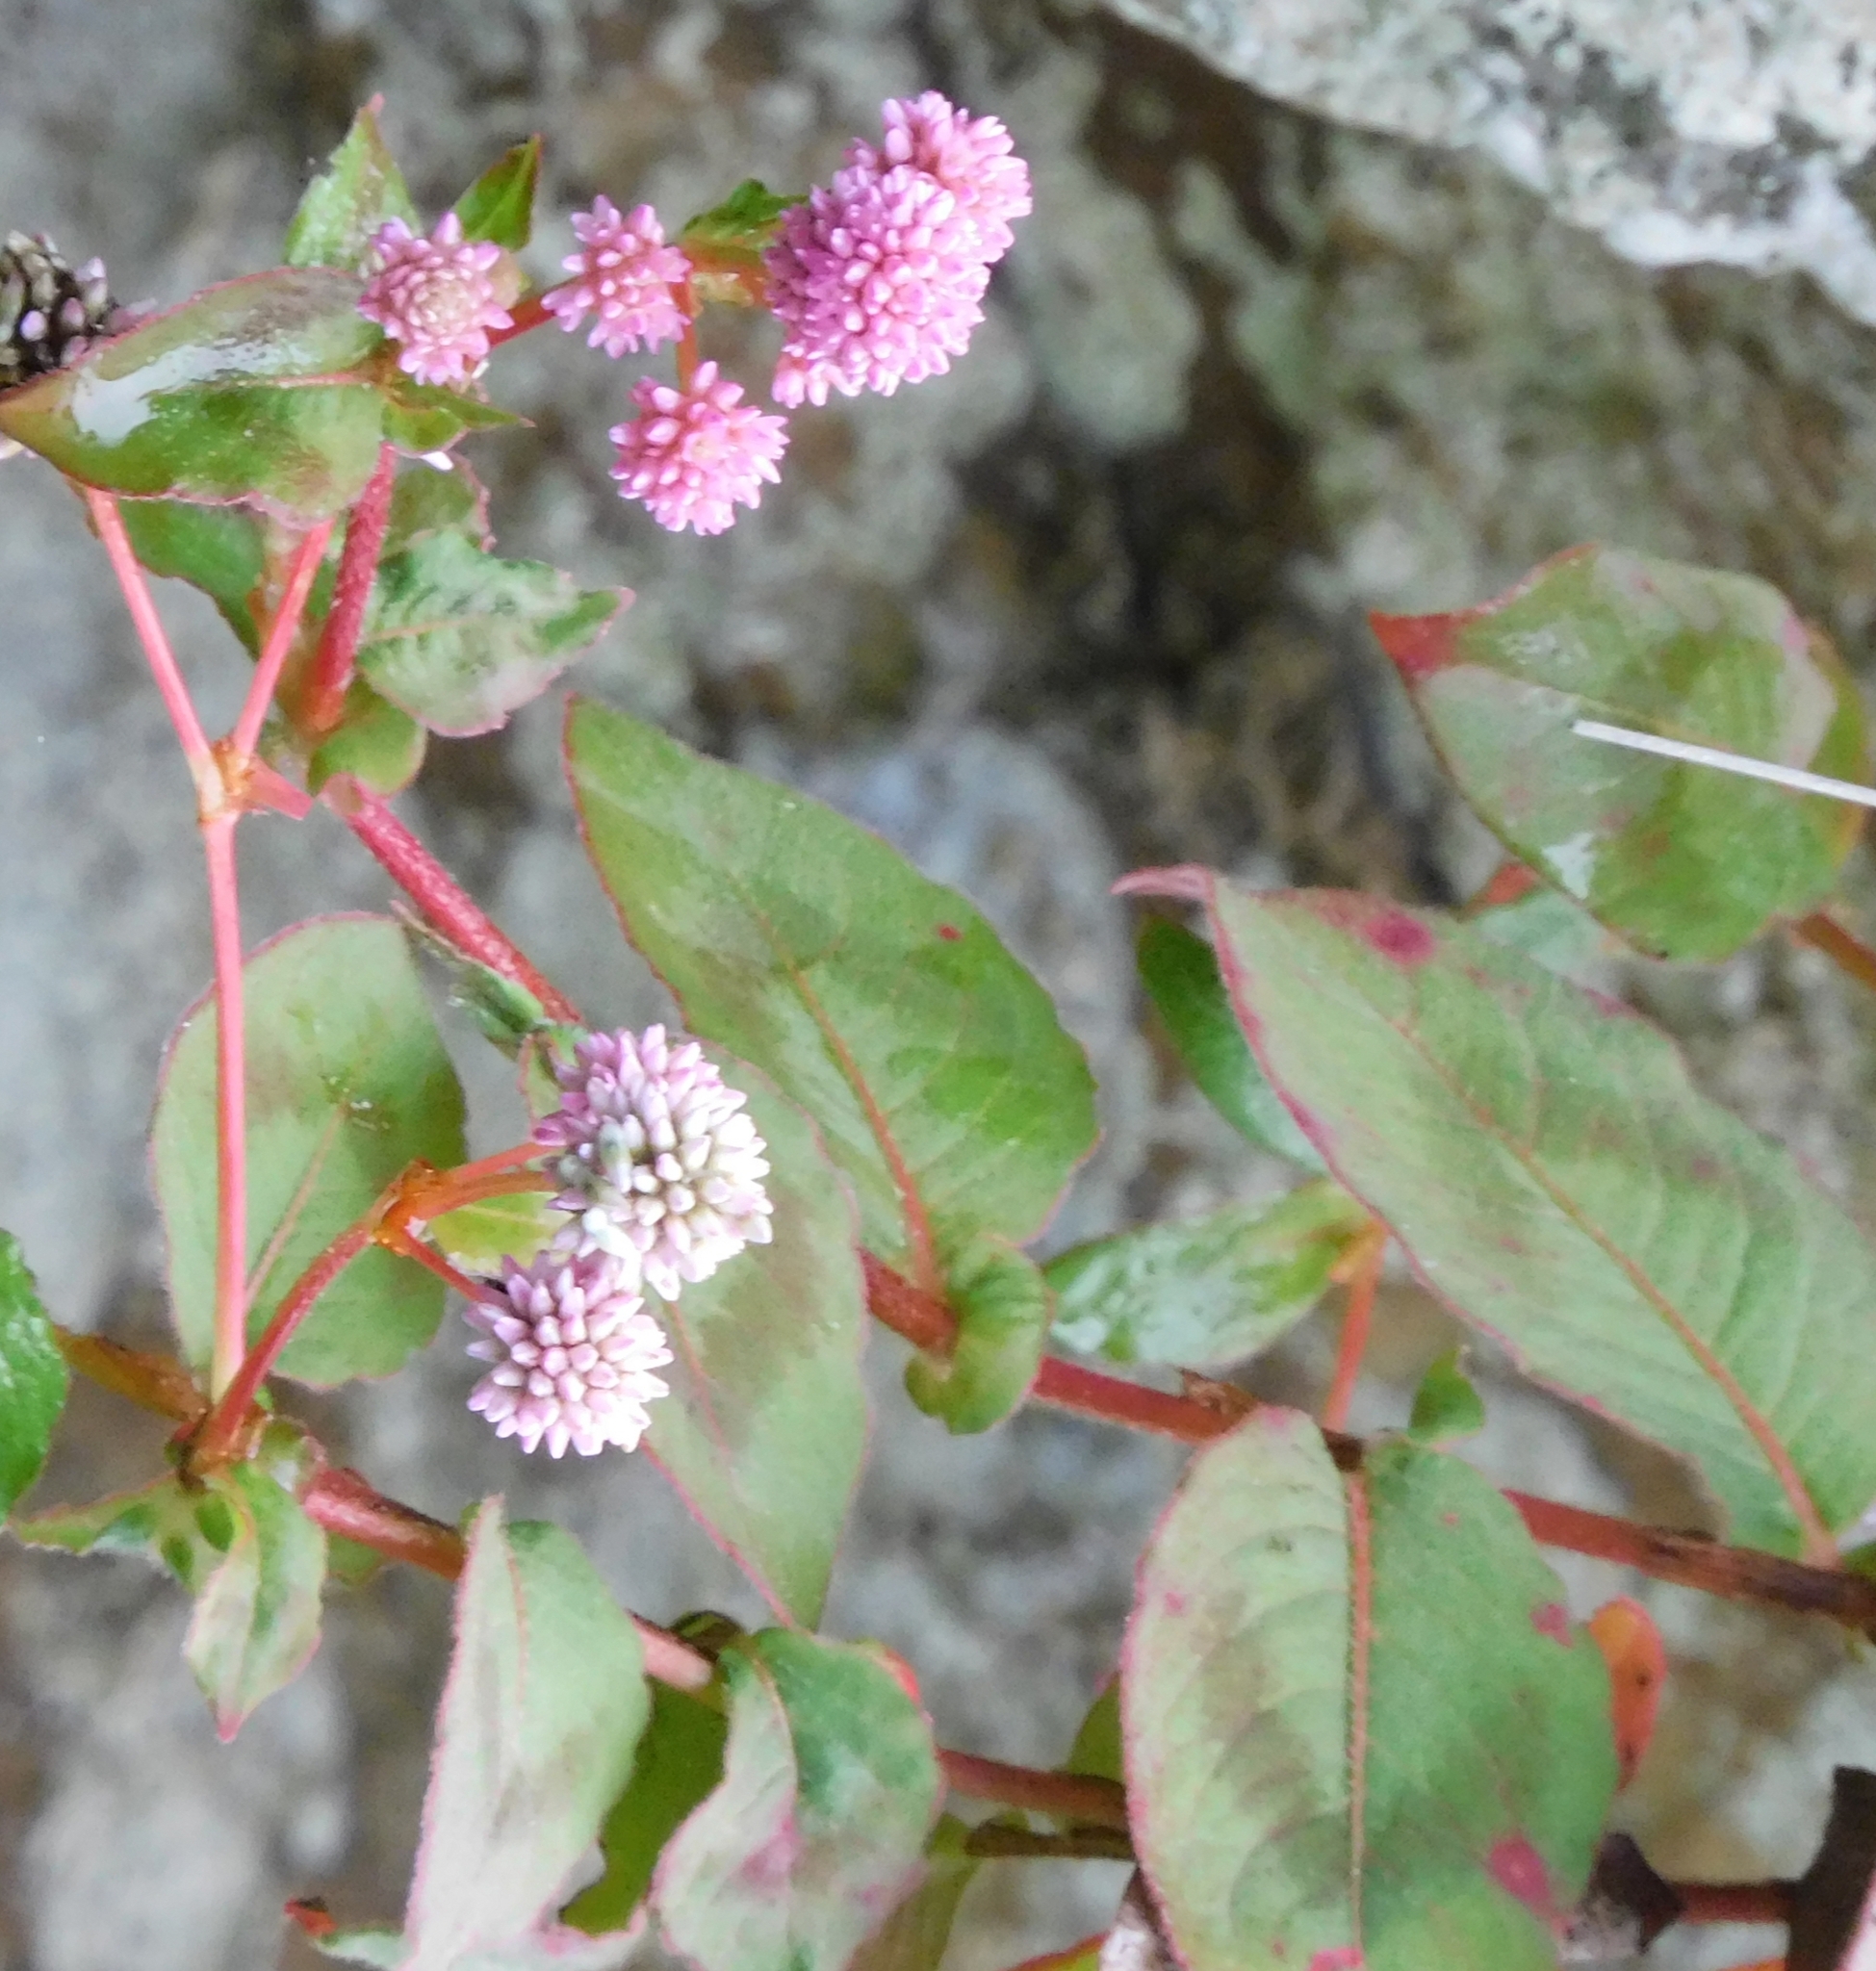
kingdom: Plantae
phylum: Tracheophyta
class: Magnoliopsida
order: Caryophyllales
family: Polygonaceae
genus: Persicaria
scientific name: Persicaria capitata
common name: Pinkhead smartweed
